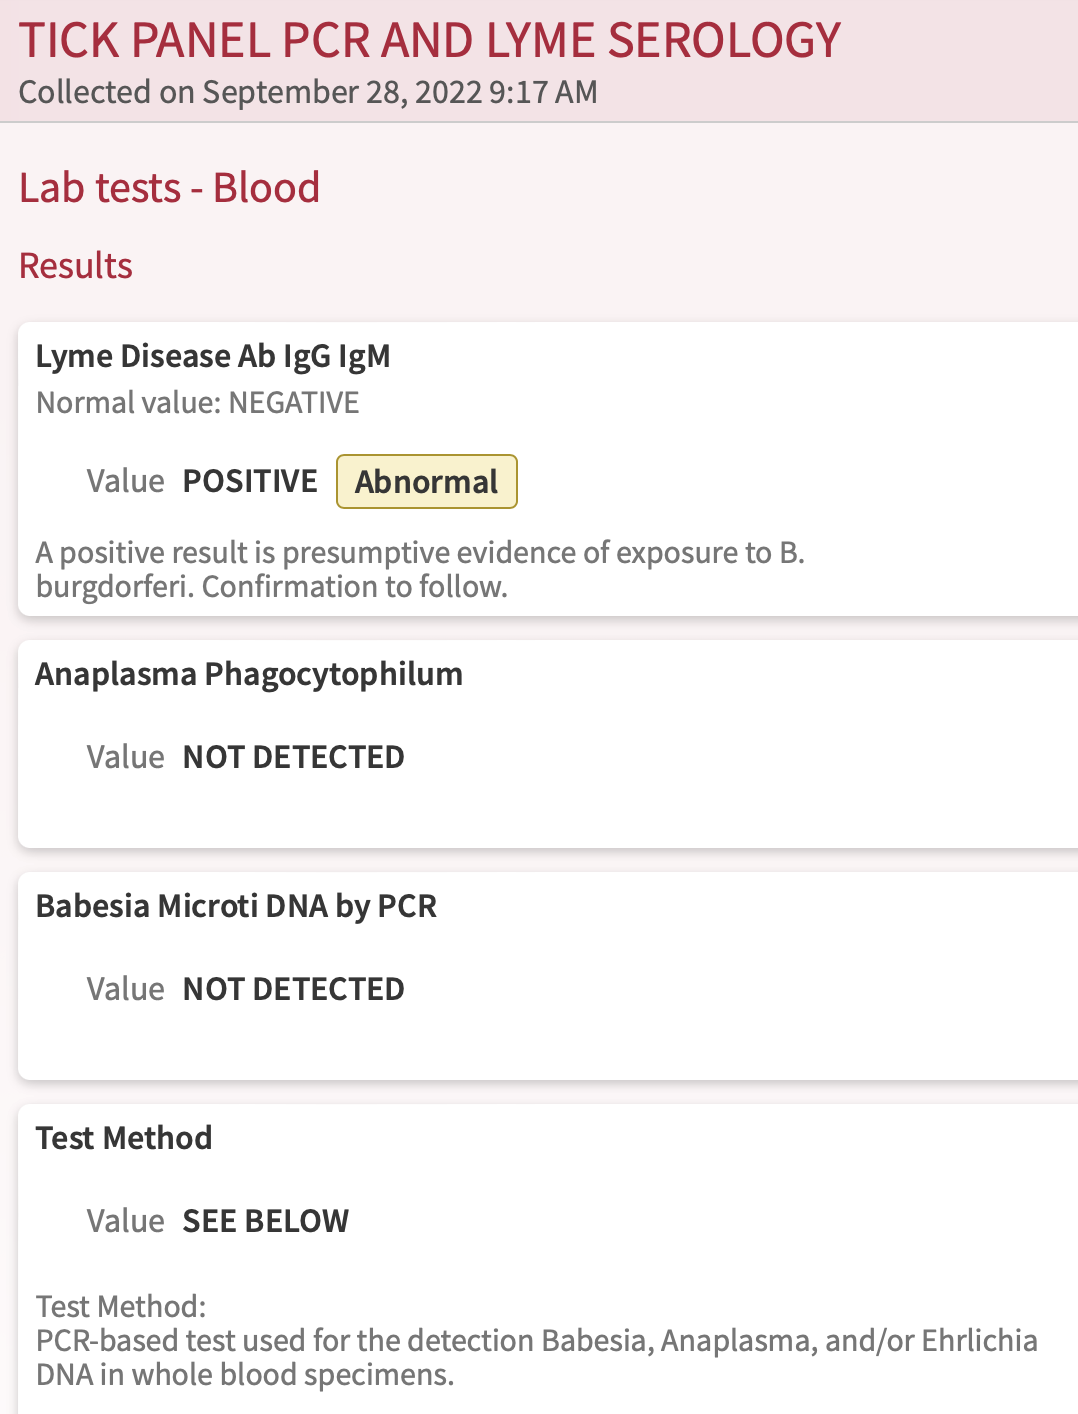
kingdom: Bacteria
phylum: Spirochaetota
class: Spirochaetia
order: Borreliales
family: Borreliaceae
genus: Borreliella
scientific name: Borreliella burgdorferi
